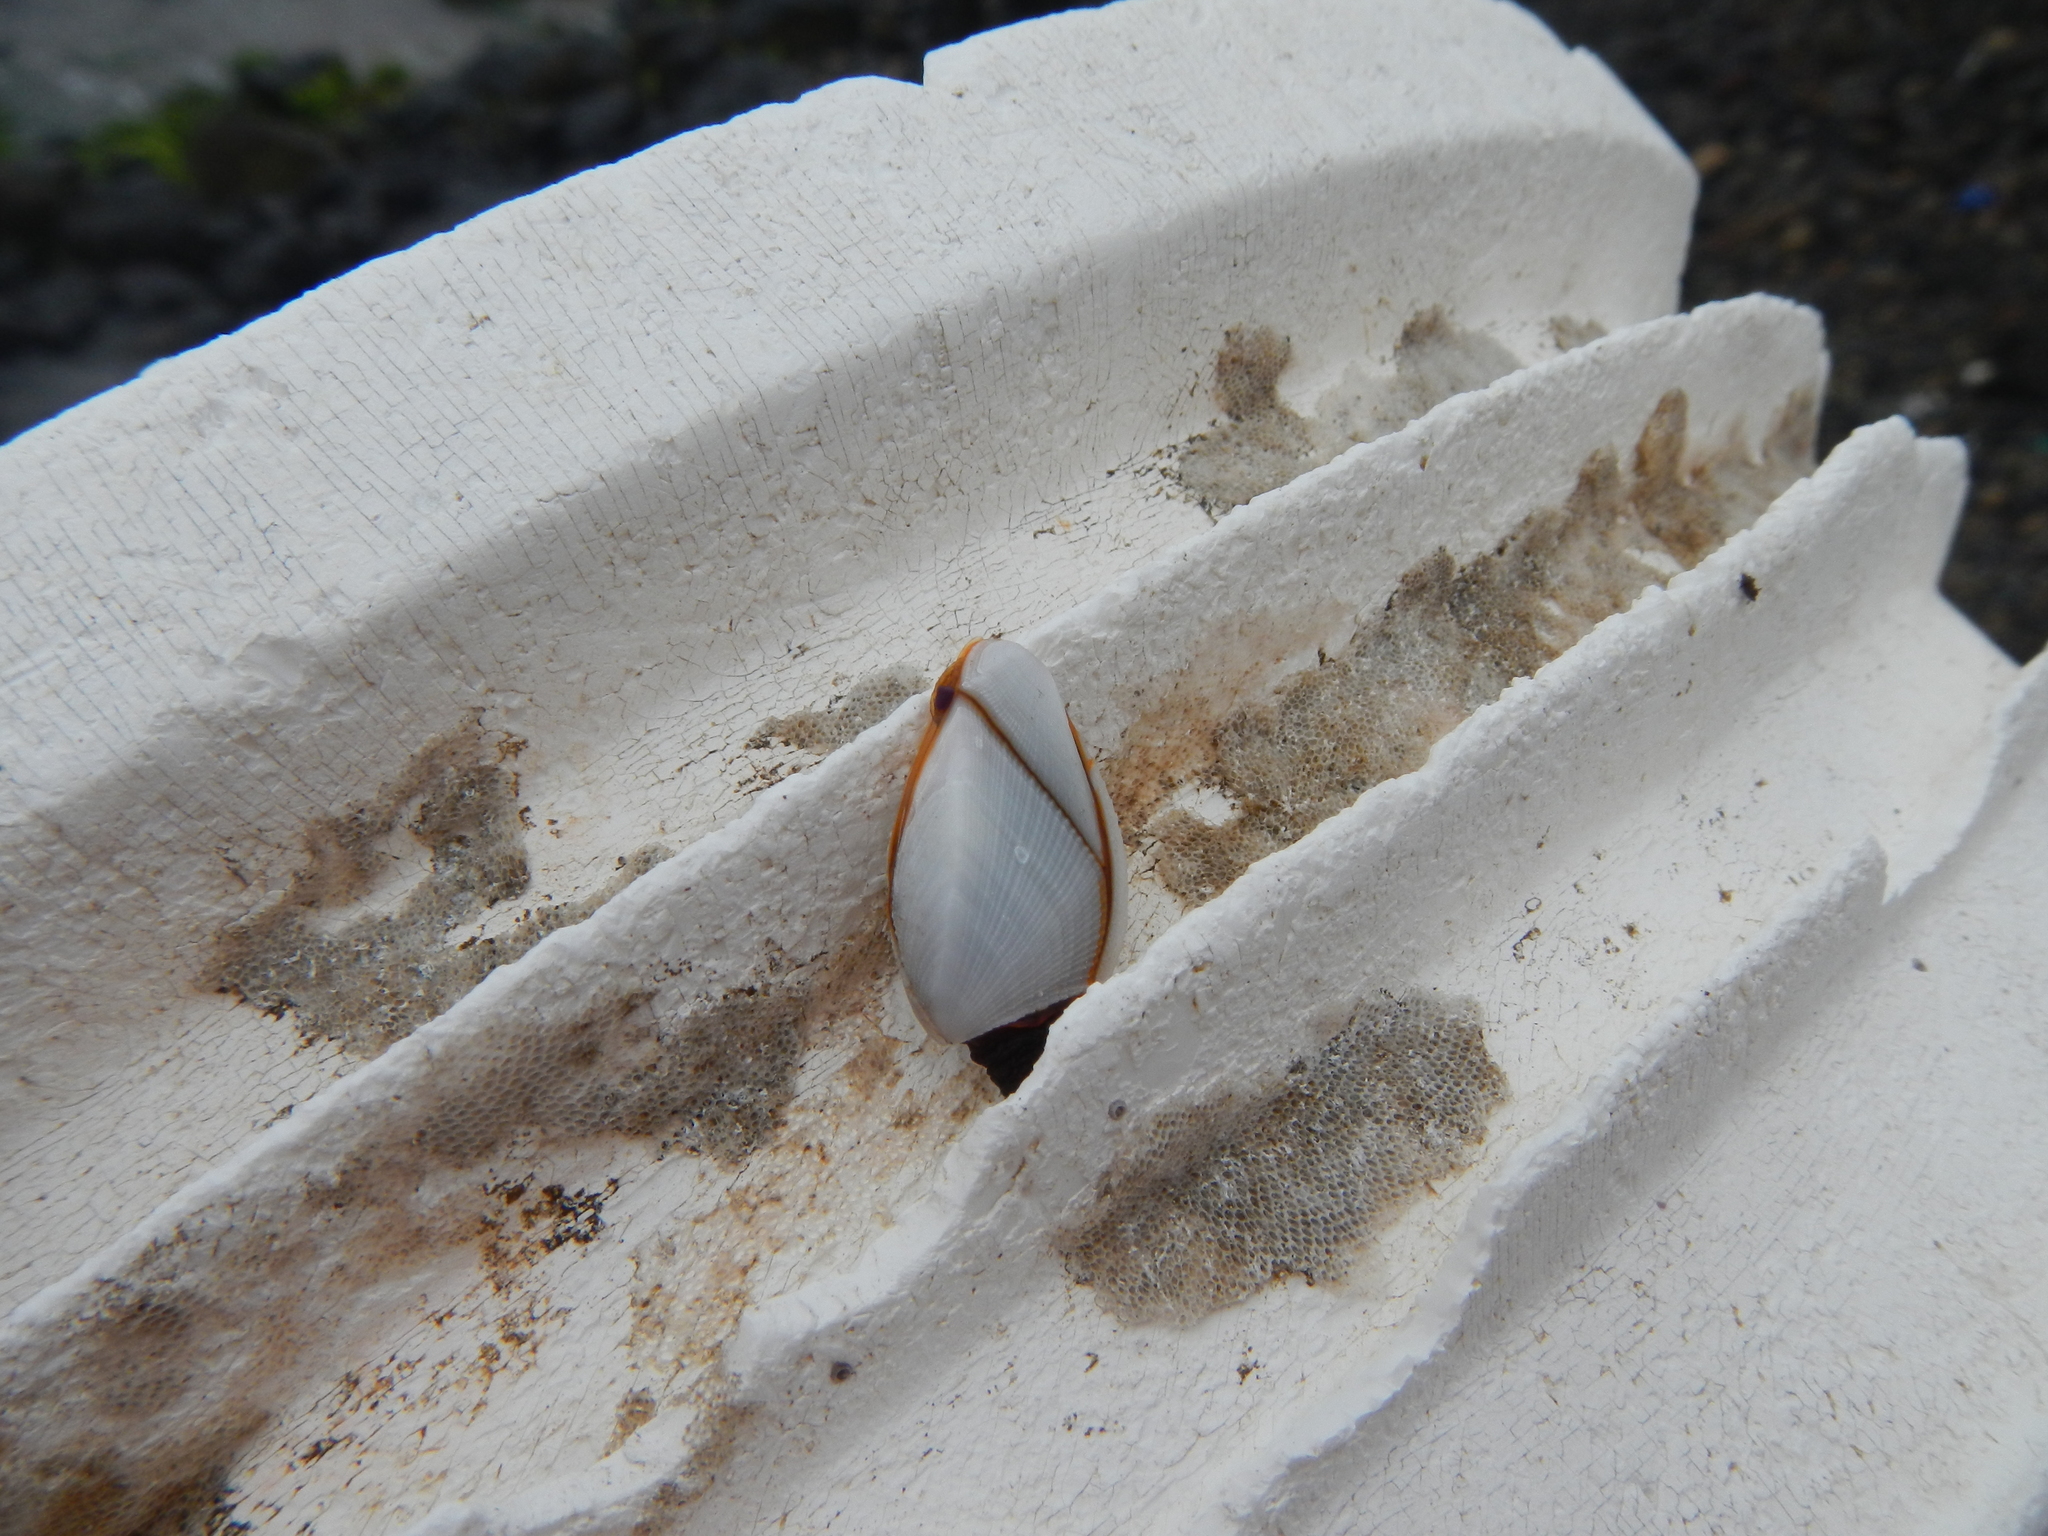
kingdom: Animalia
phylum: Arthropoda
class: Maxillopoda
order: Pedunculata
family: Lepadidae
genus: Lepas
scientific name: Lepas anserifera
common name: Goose barnacle
